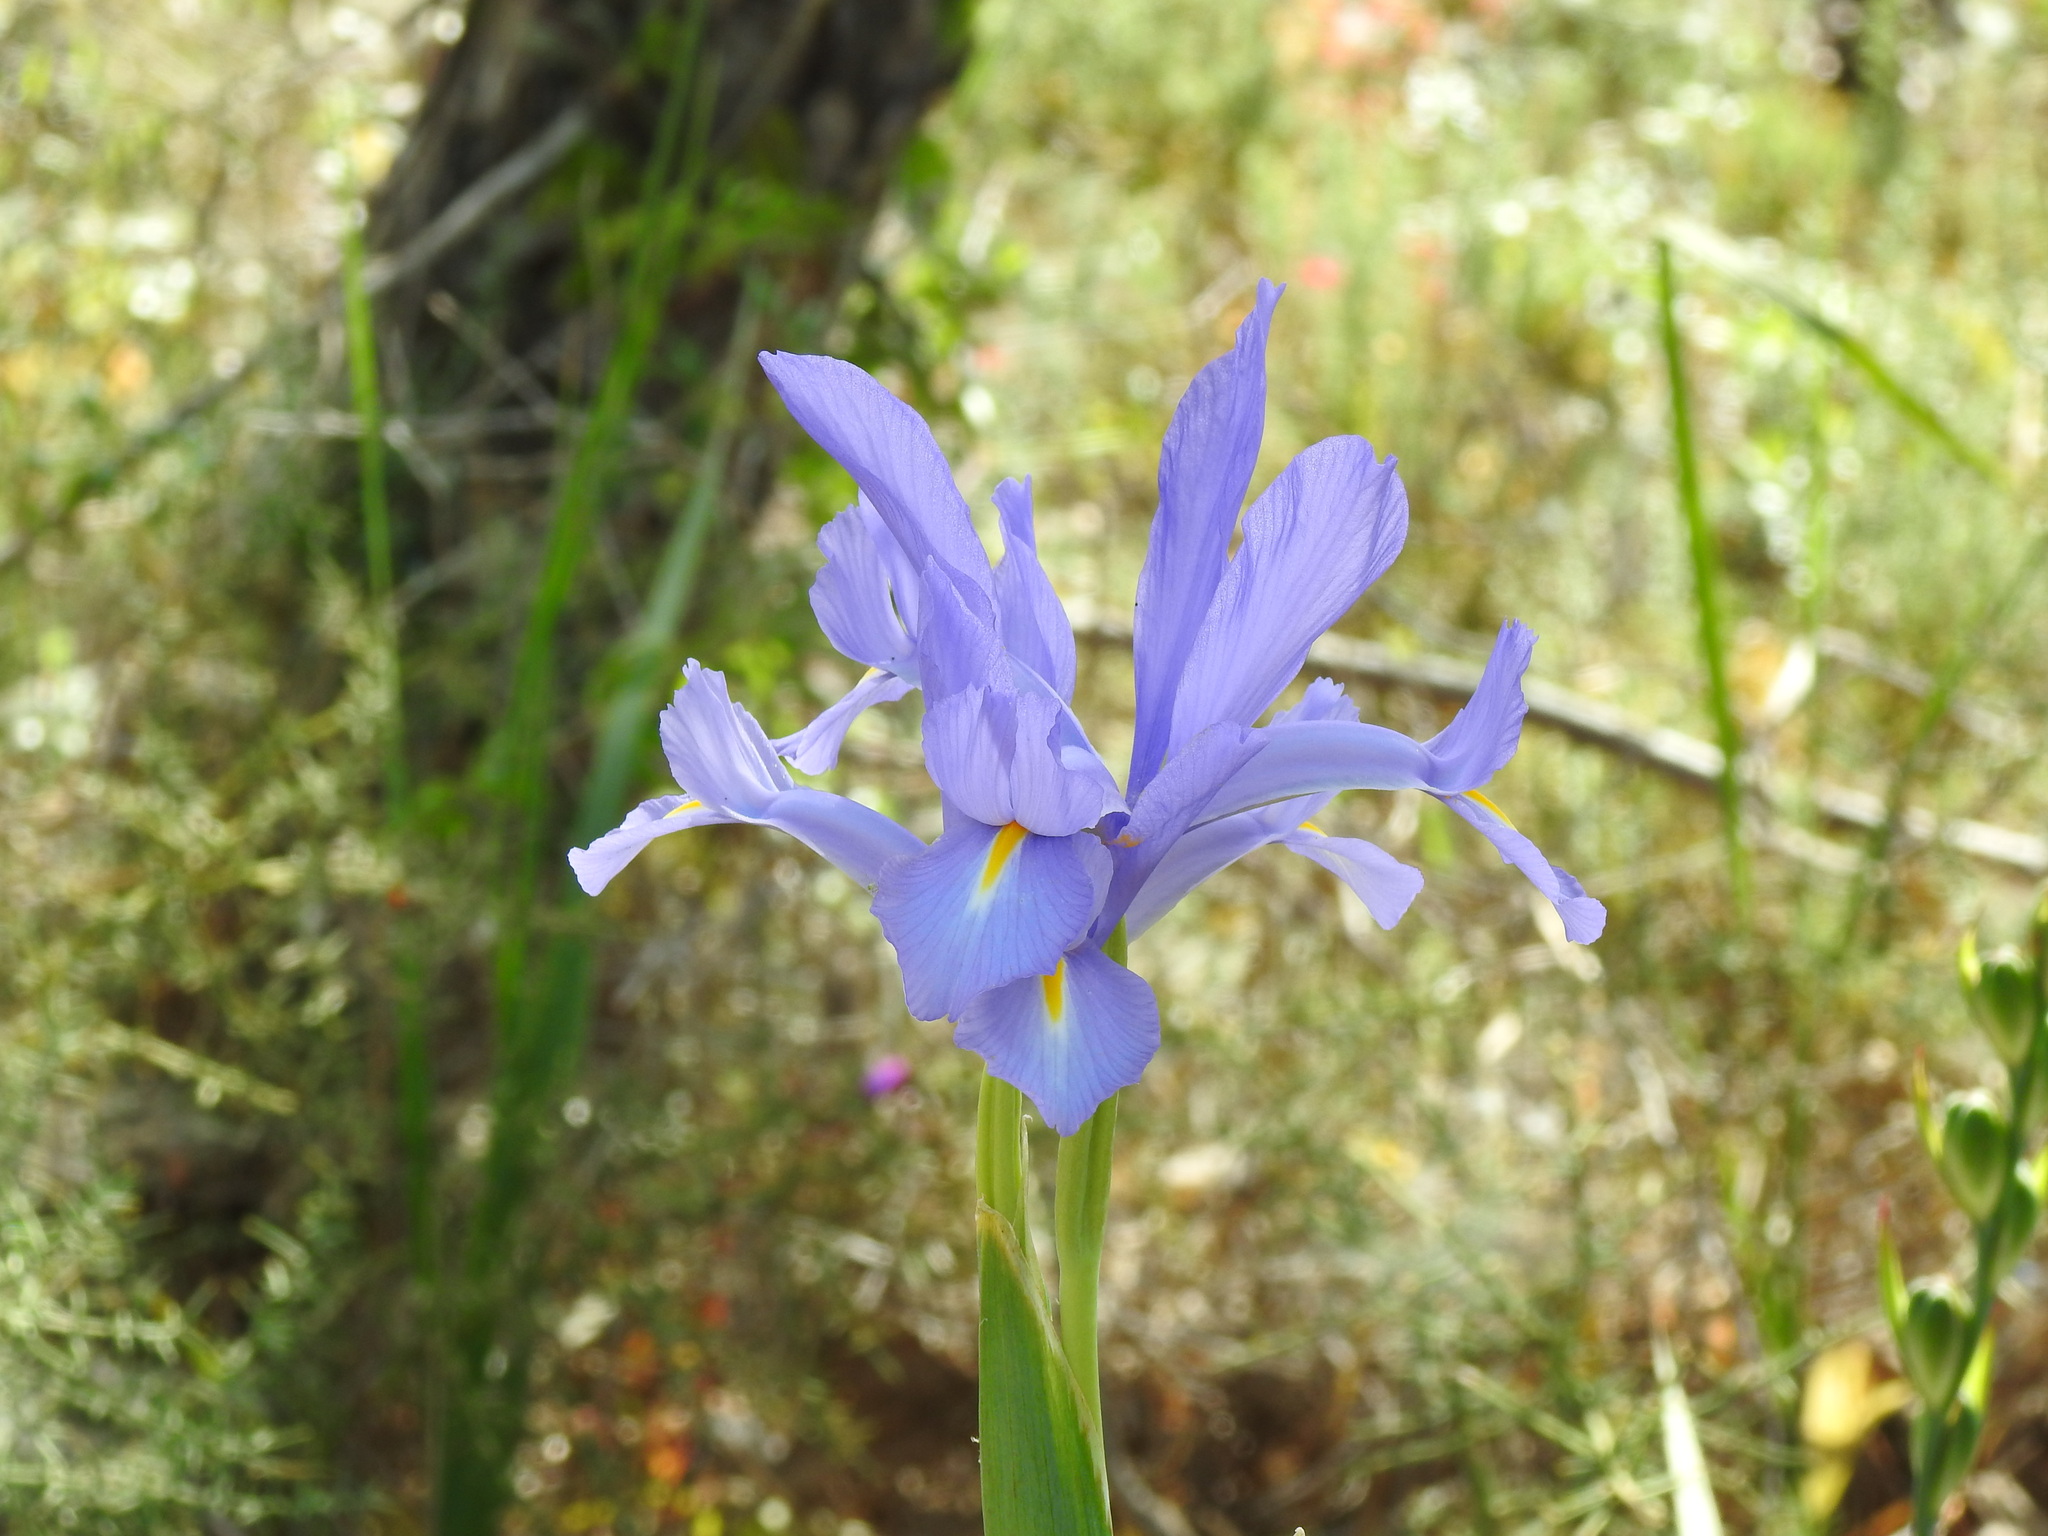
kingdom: Plantae
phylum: Tracheophyta
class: Liliopsida
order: Asparagales
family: Iridaceae
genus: Iris
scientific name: Iris xiphium
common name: Spanish iris
